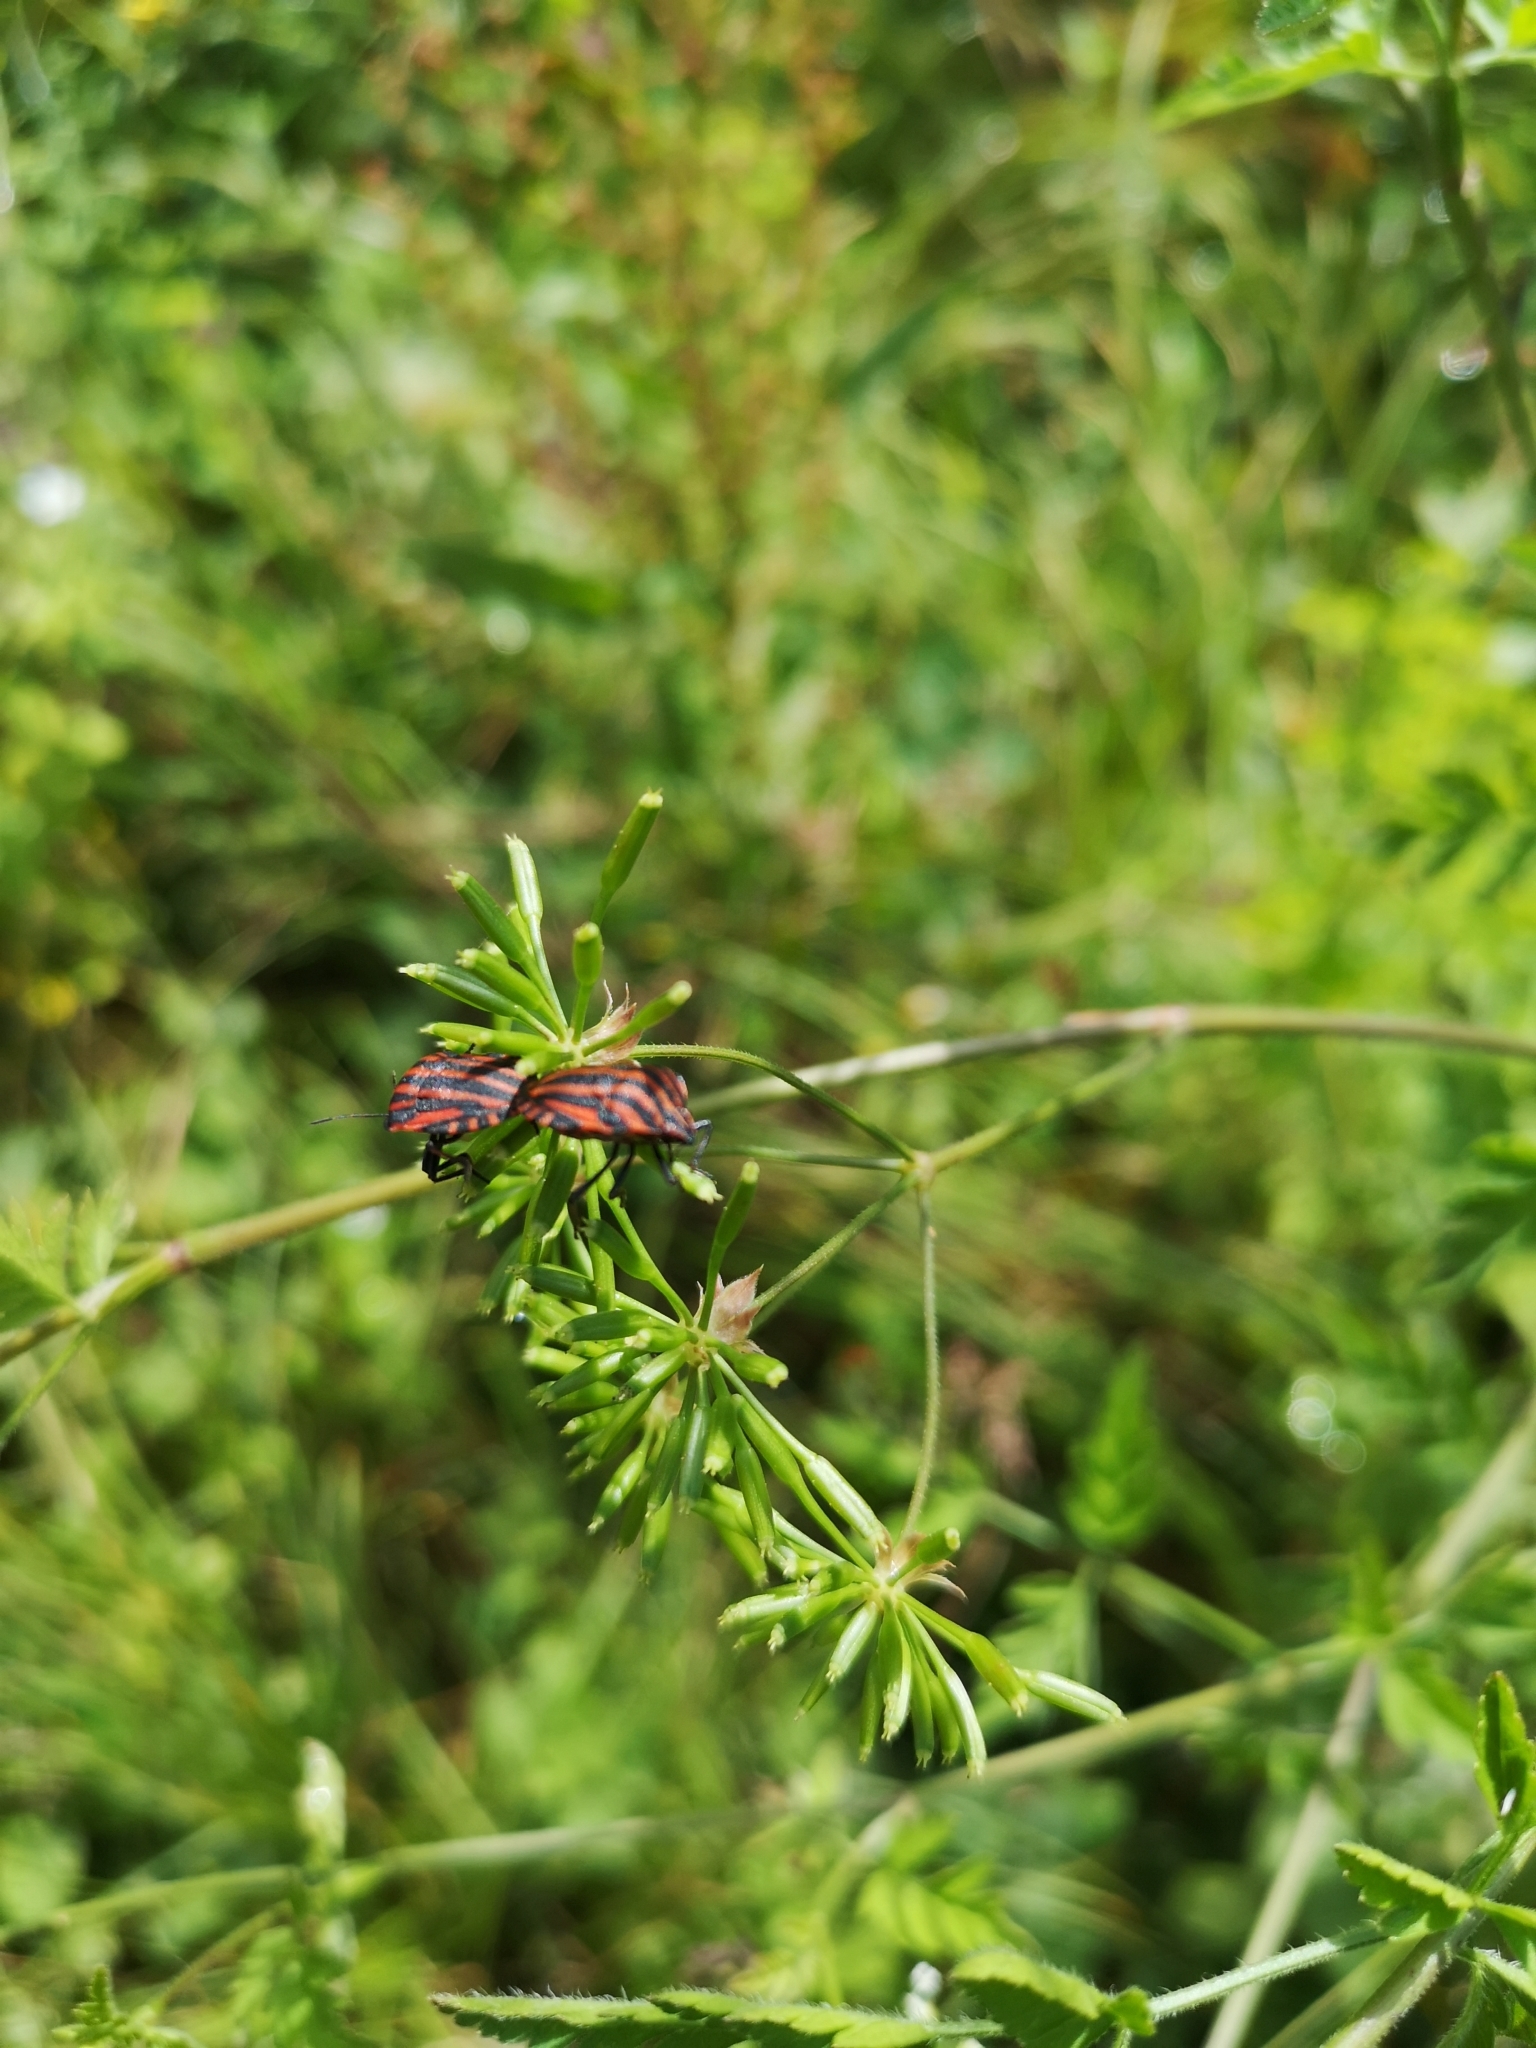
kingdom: Animalia
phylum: Arthropoda
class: Insecta
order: Hemiptera
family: Pentatomidae
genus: Graphosoma
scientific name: Graphosoma italicum
